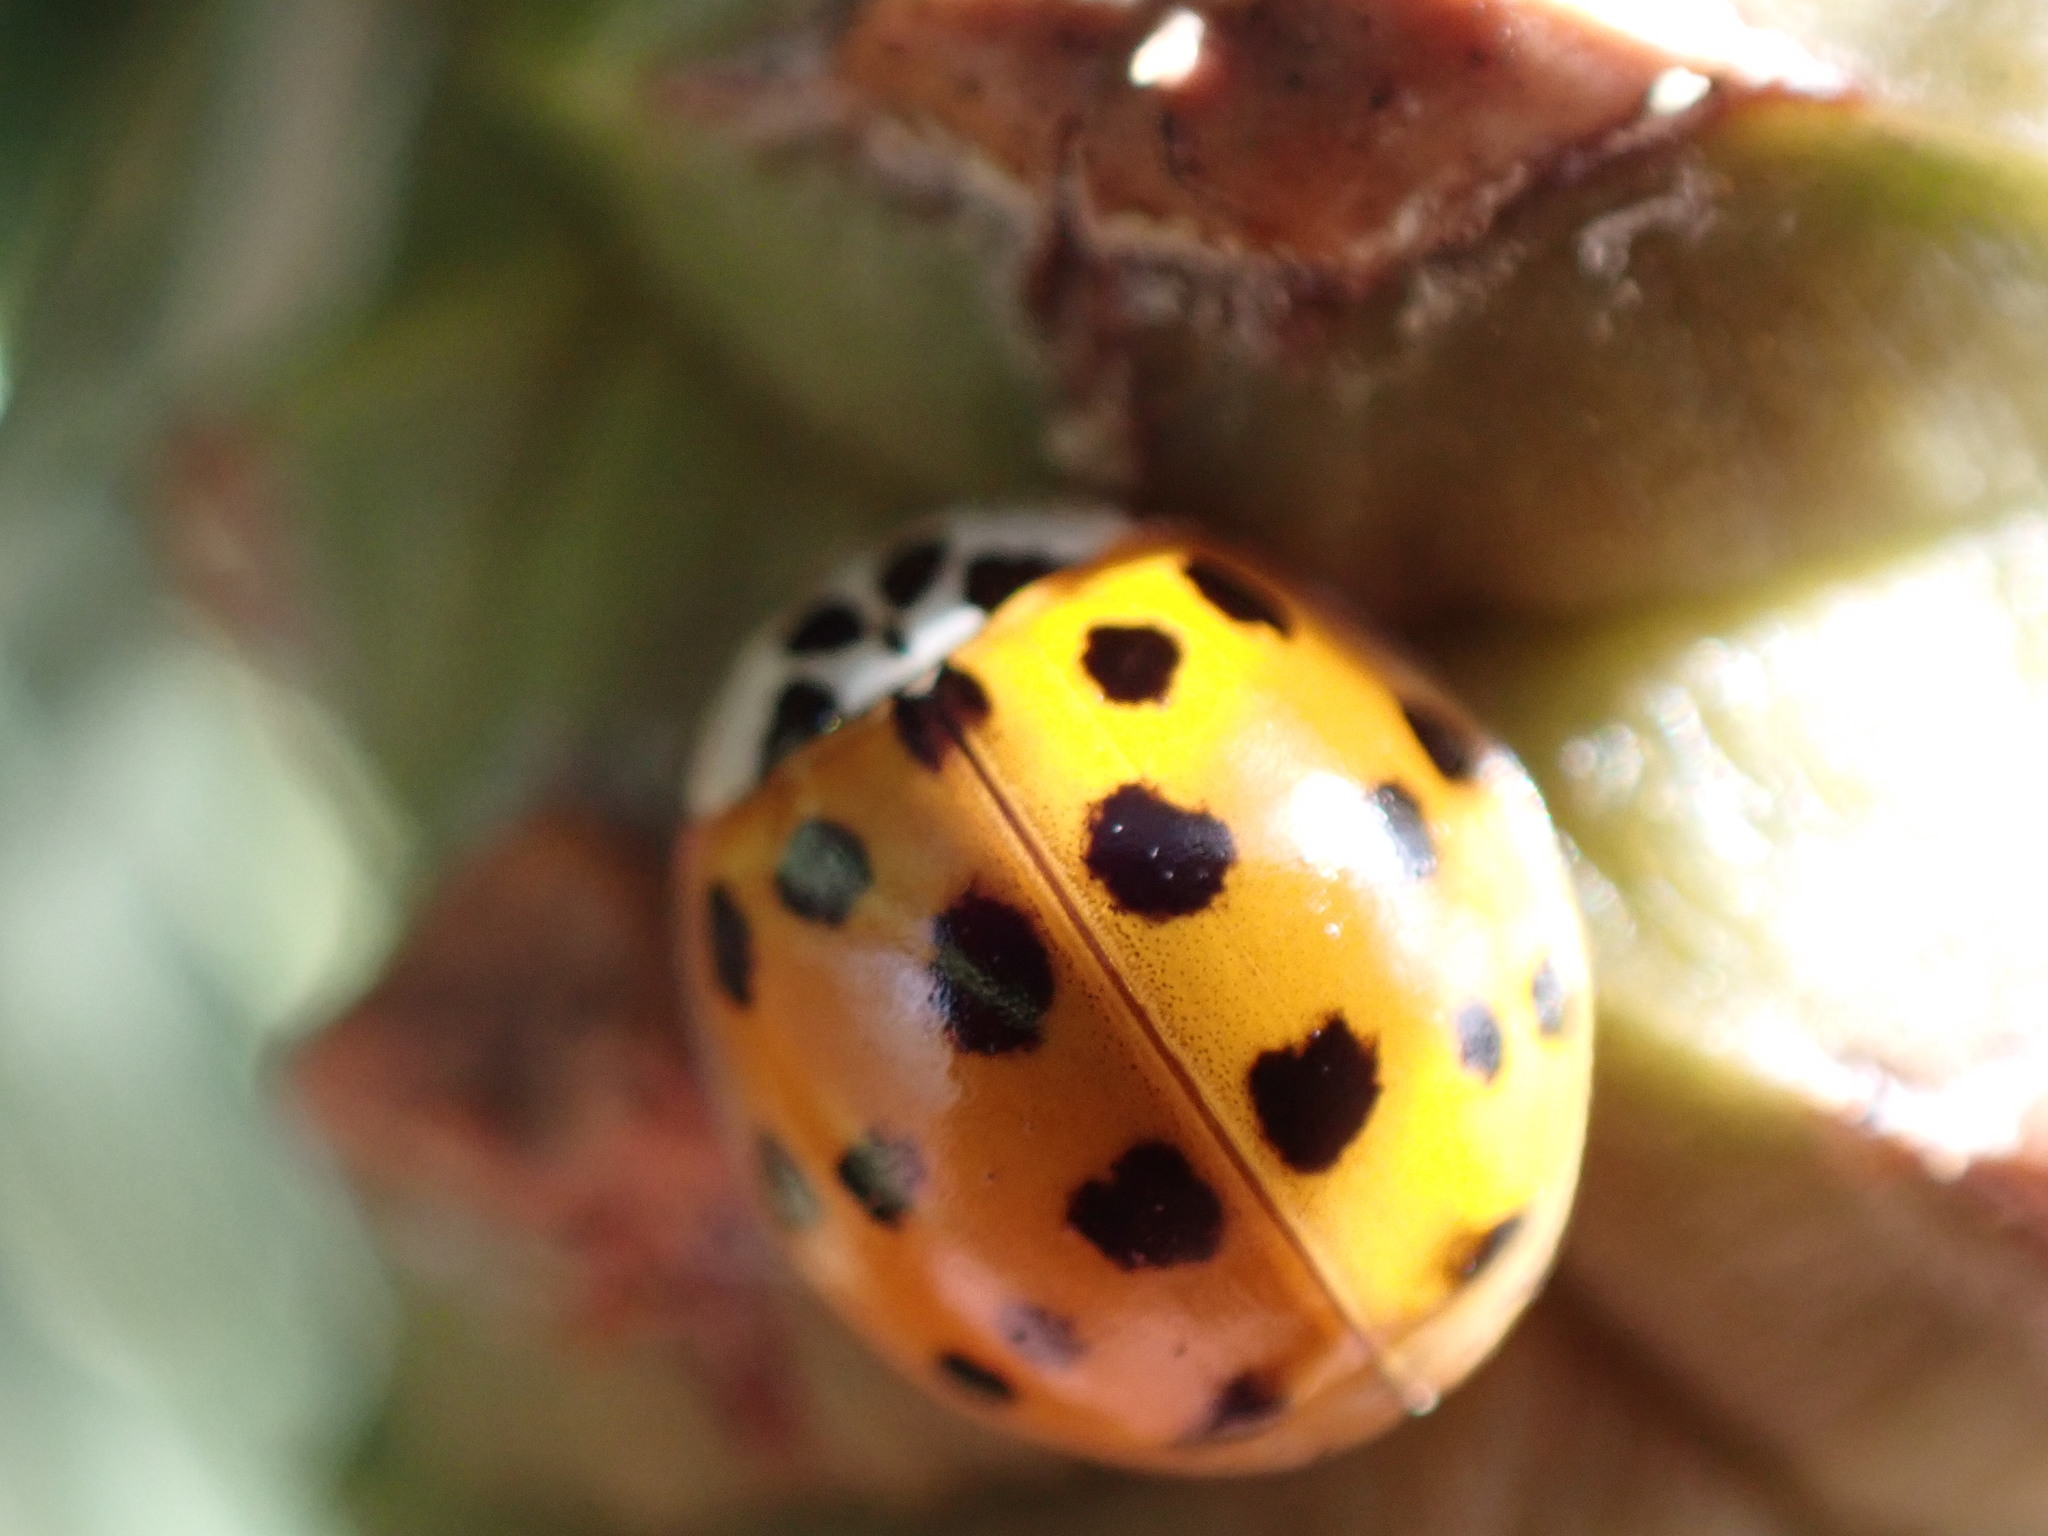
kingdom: Animalia
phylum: Arthropoda
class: Insecta
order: Coleoptera
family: Coccinellidae
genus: Harmonia
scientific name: Harmonia axyridis
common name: Harlequin ladybird
